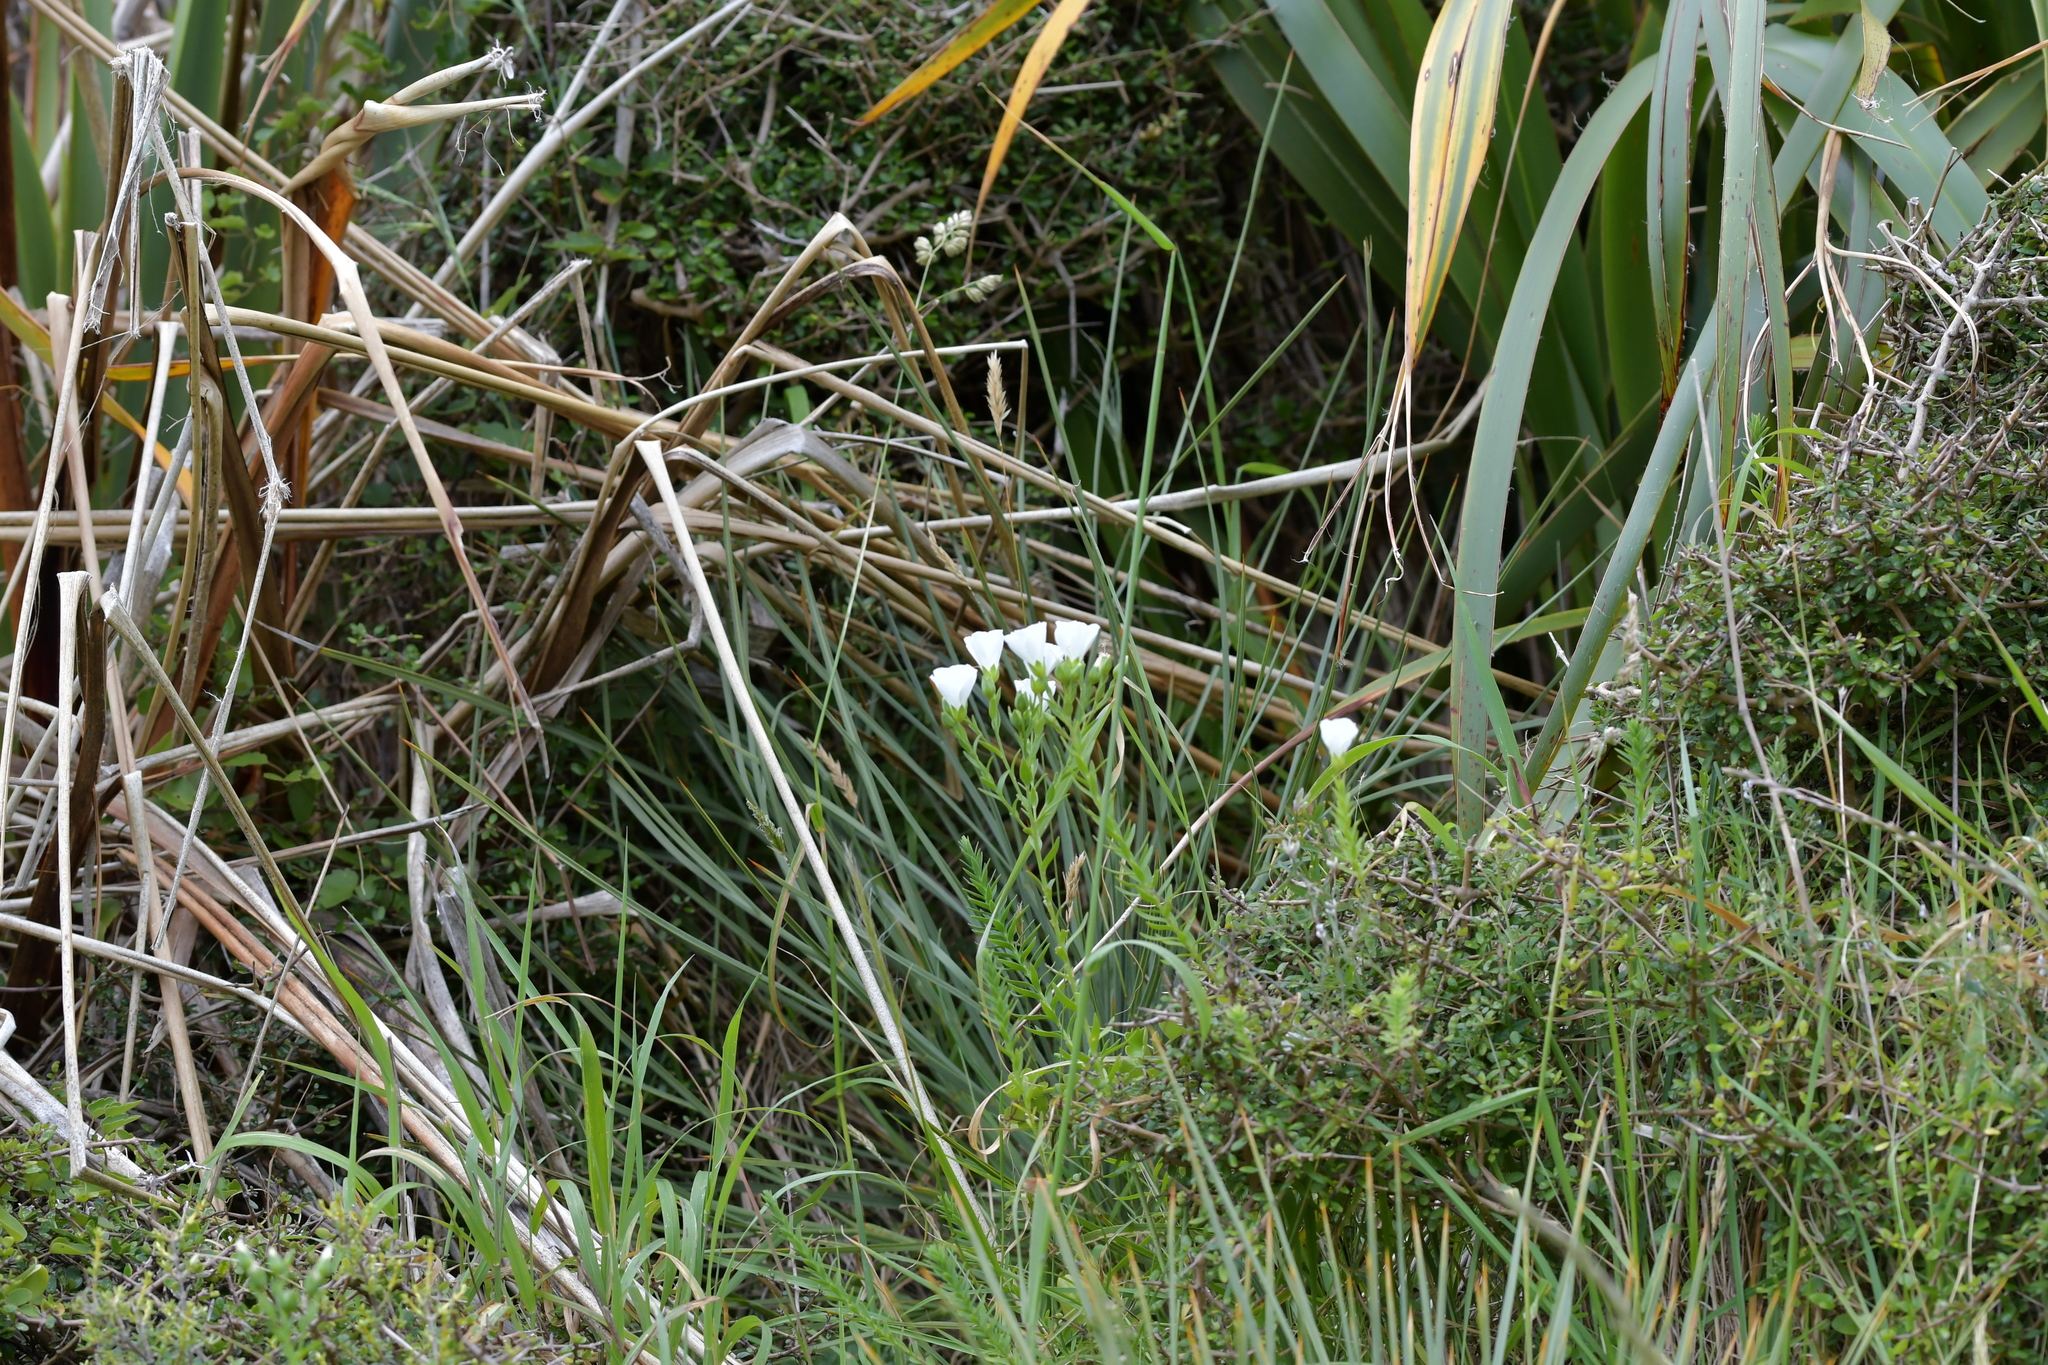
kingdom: Plantae
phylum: Tracheophyta
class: Magnoliopsida
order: Malpighiales
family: Linaceae
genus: Linum
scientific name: Linum monogynum
